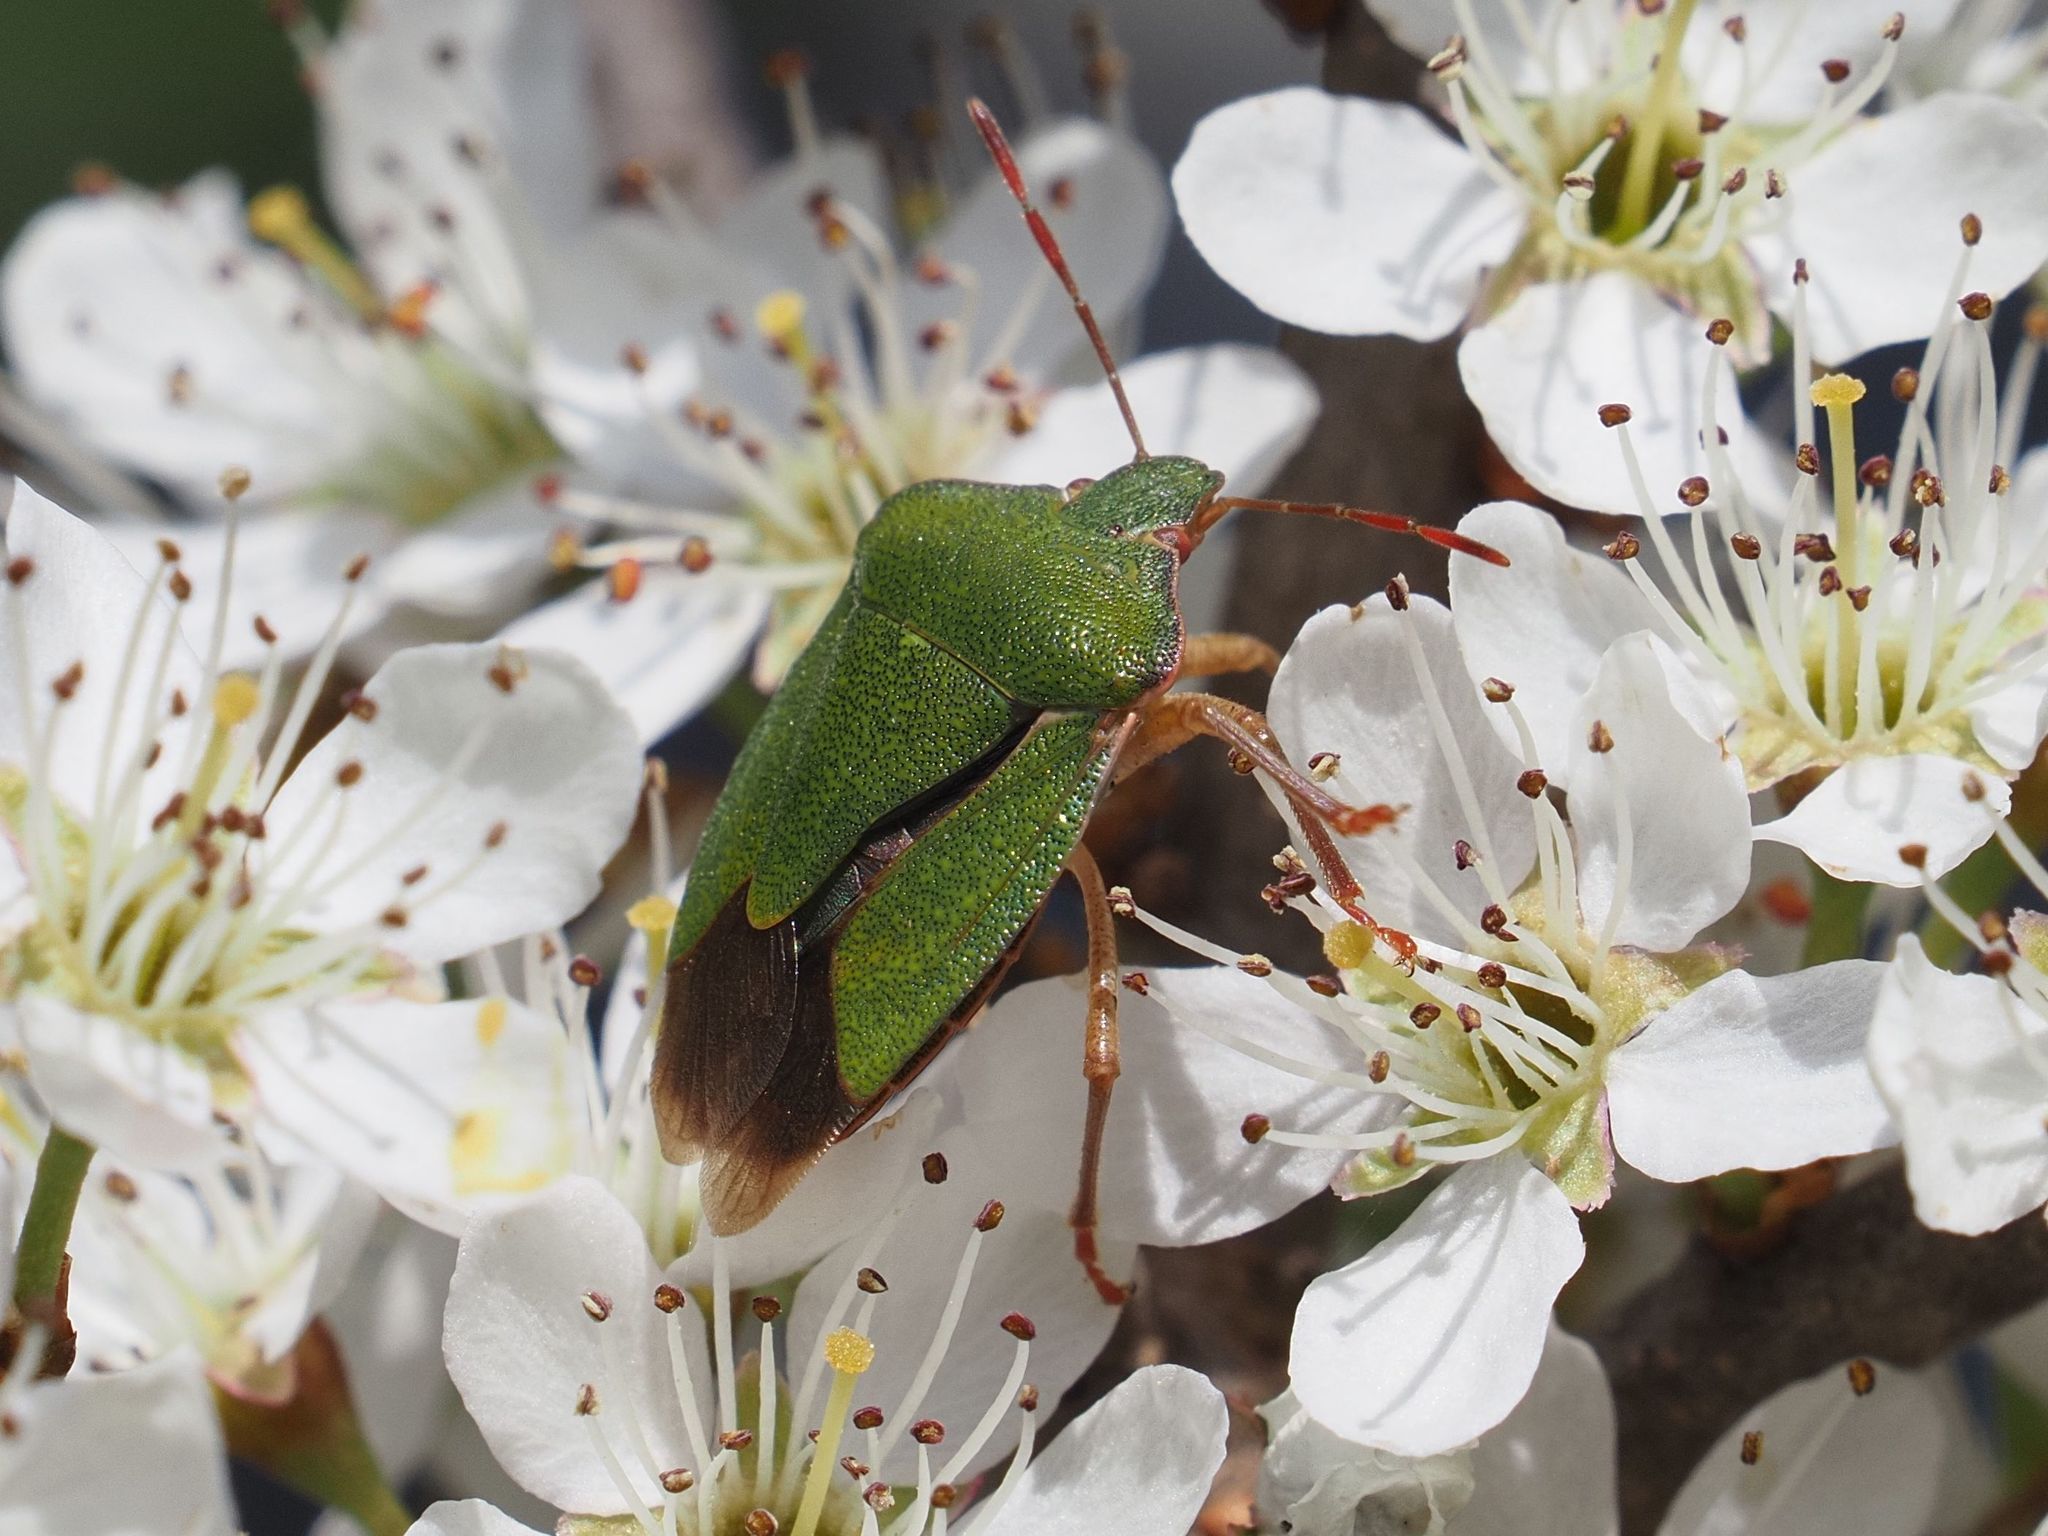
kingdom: Animalia
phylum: Arthropoda
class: Insecta
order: Hemiptera
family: Pentatomidae
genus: Palomena
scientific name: Palomena prasina
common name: Green shieldbug
